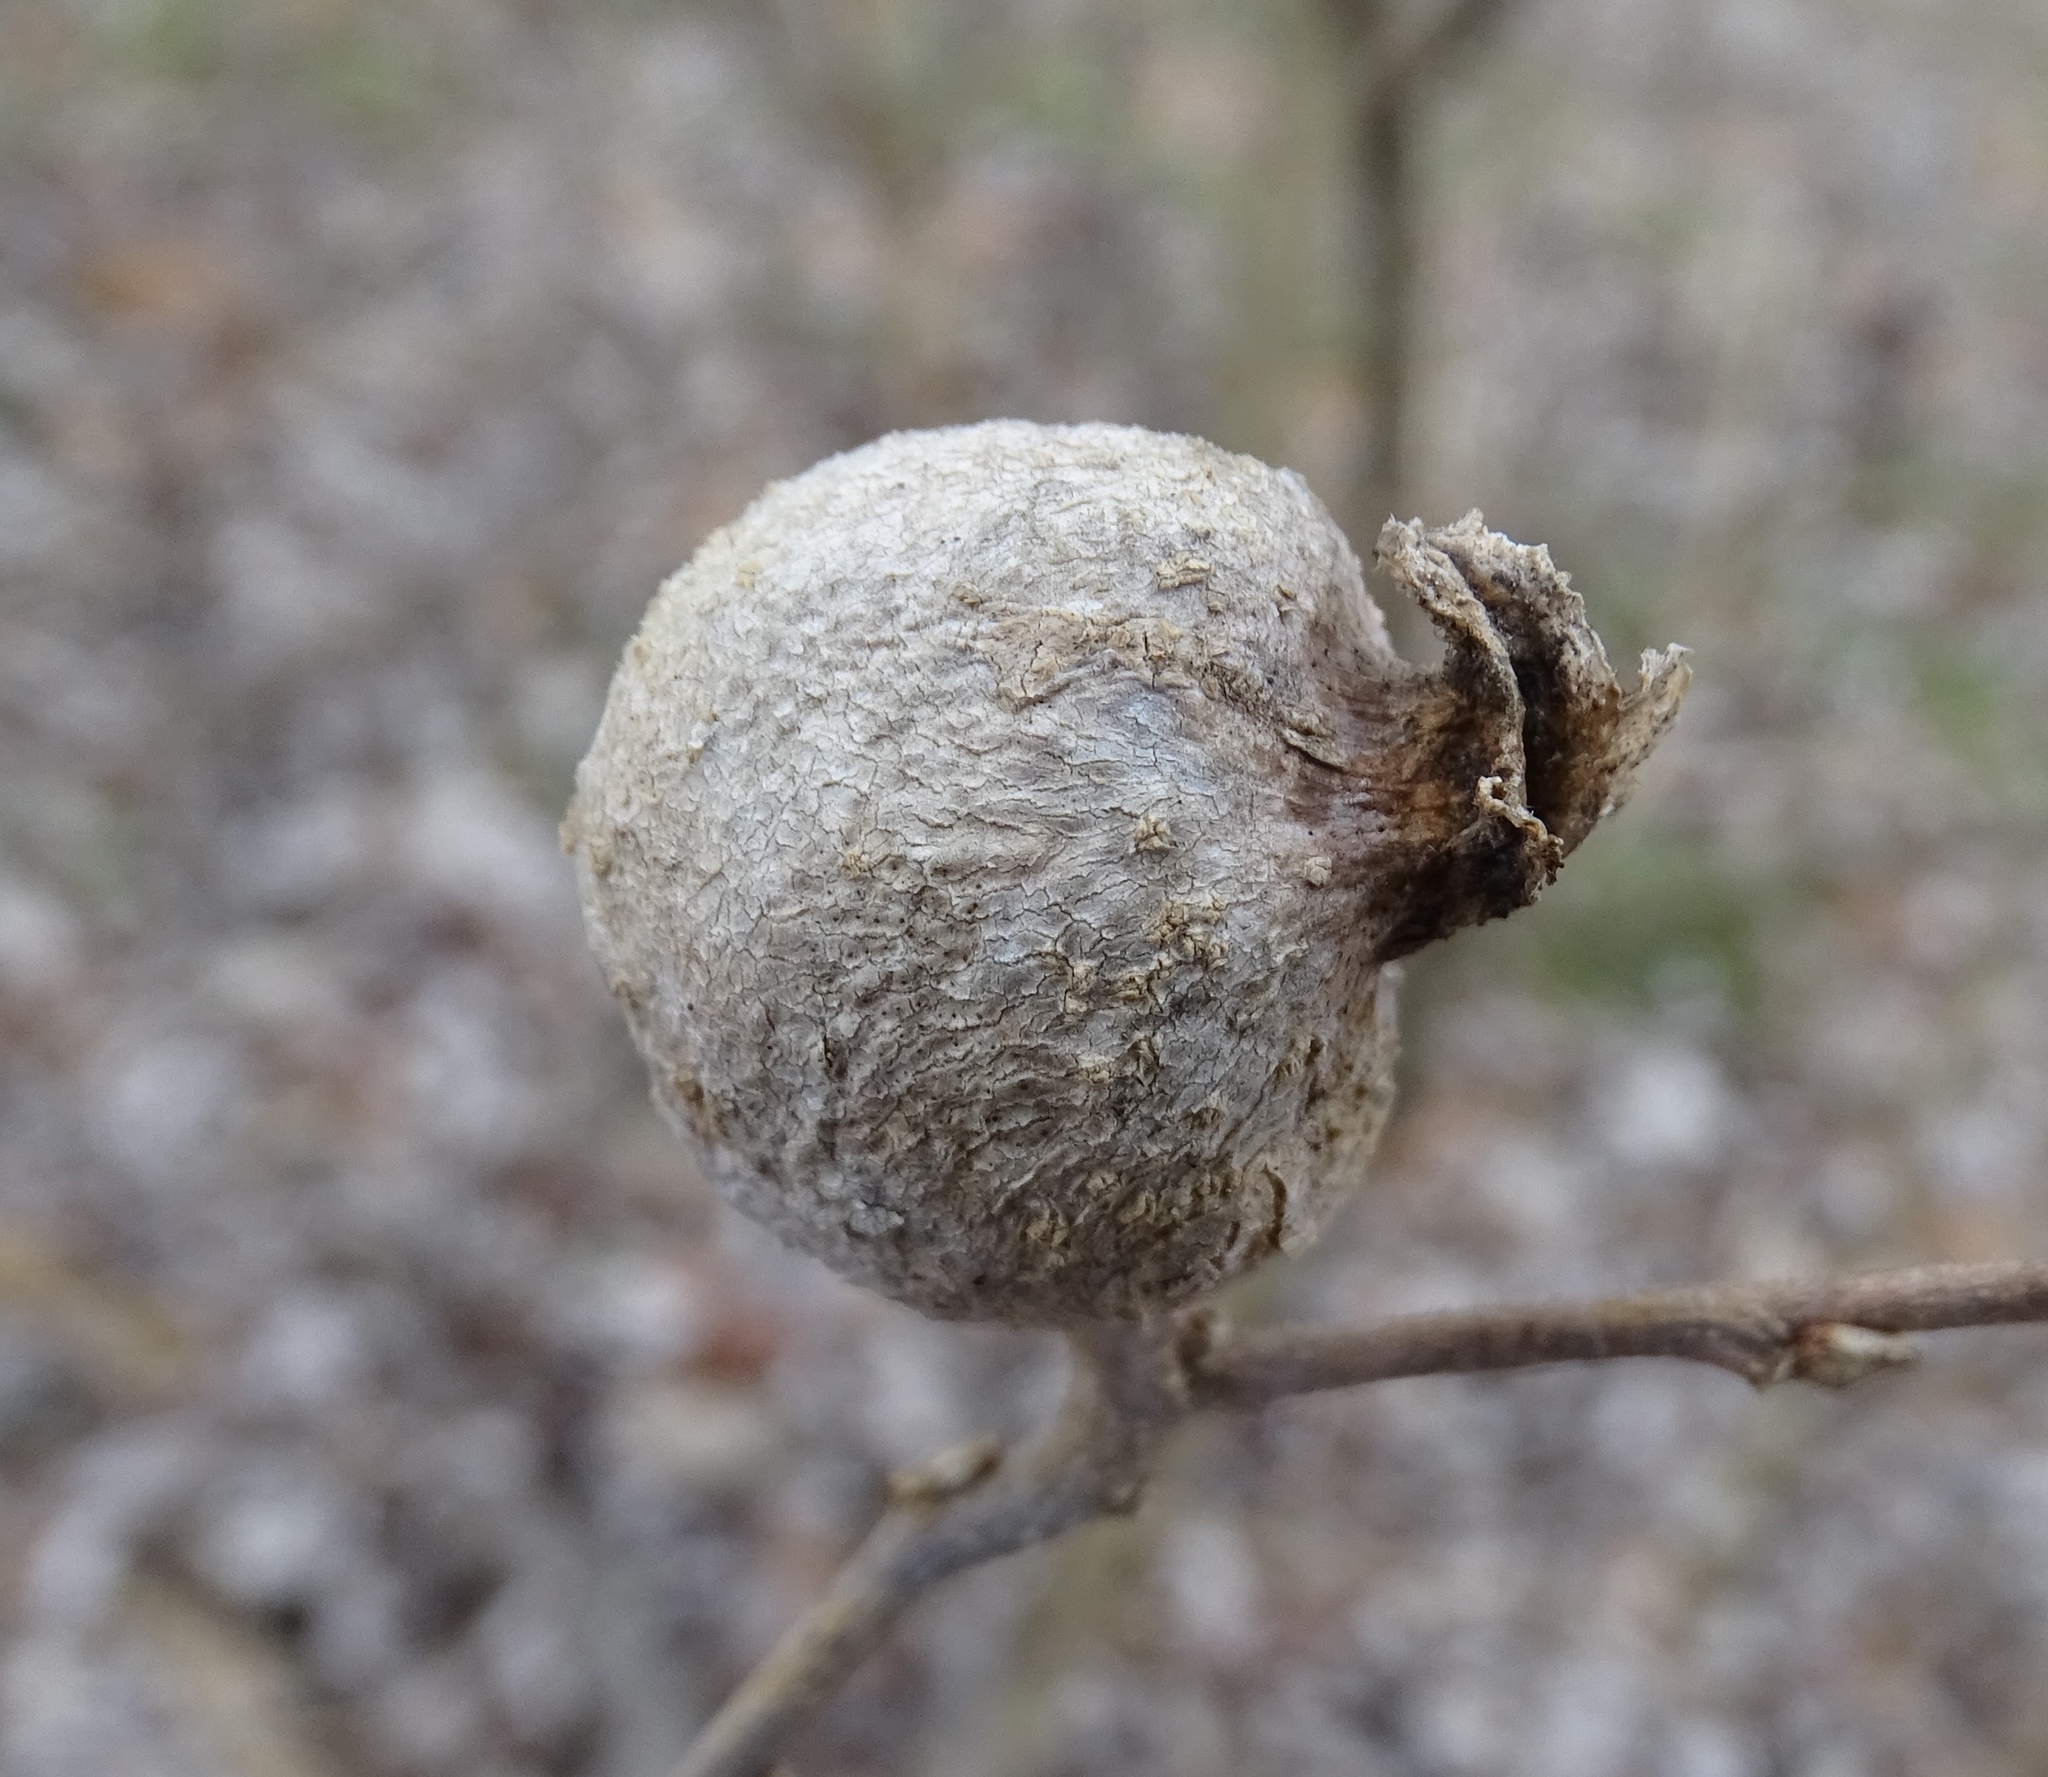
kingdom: Animalia
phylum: Arthropoda
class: Insecta
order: Hemiptera
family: Aphalaridae
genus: Pachypsylla
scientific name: Pachypsylla venusta
